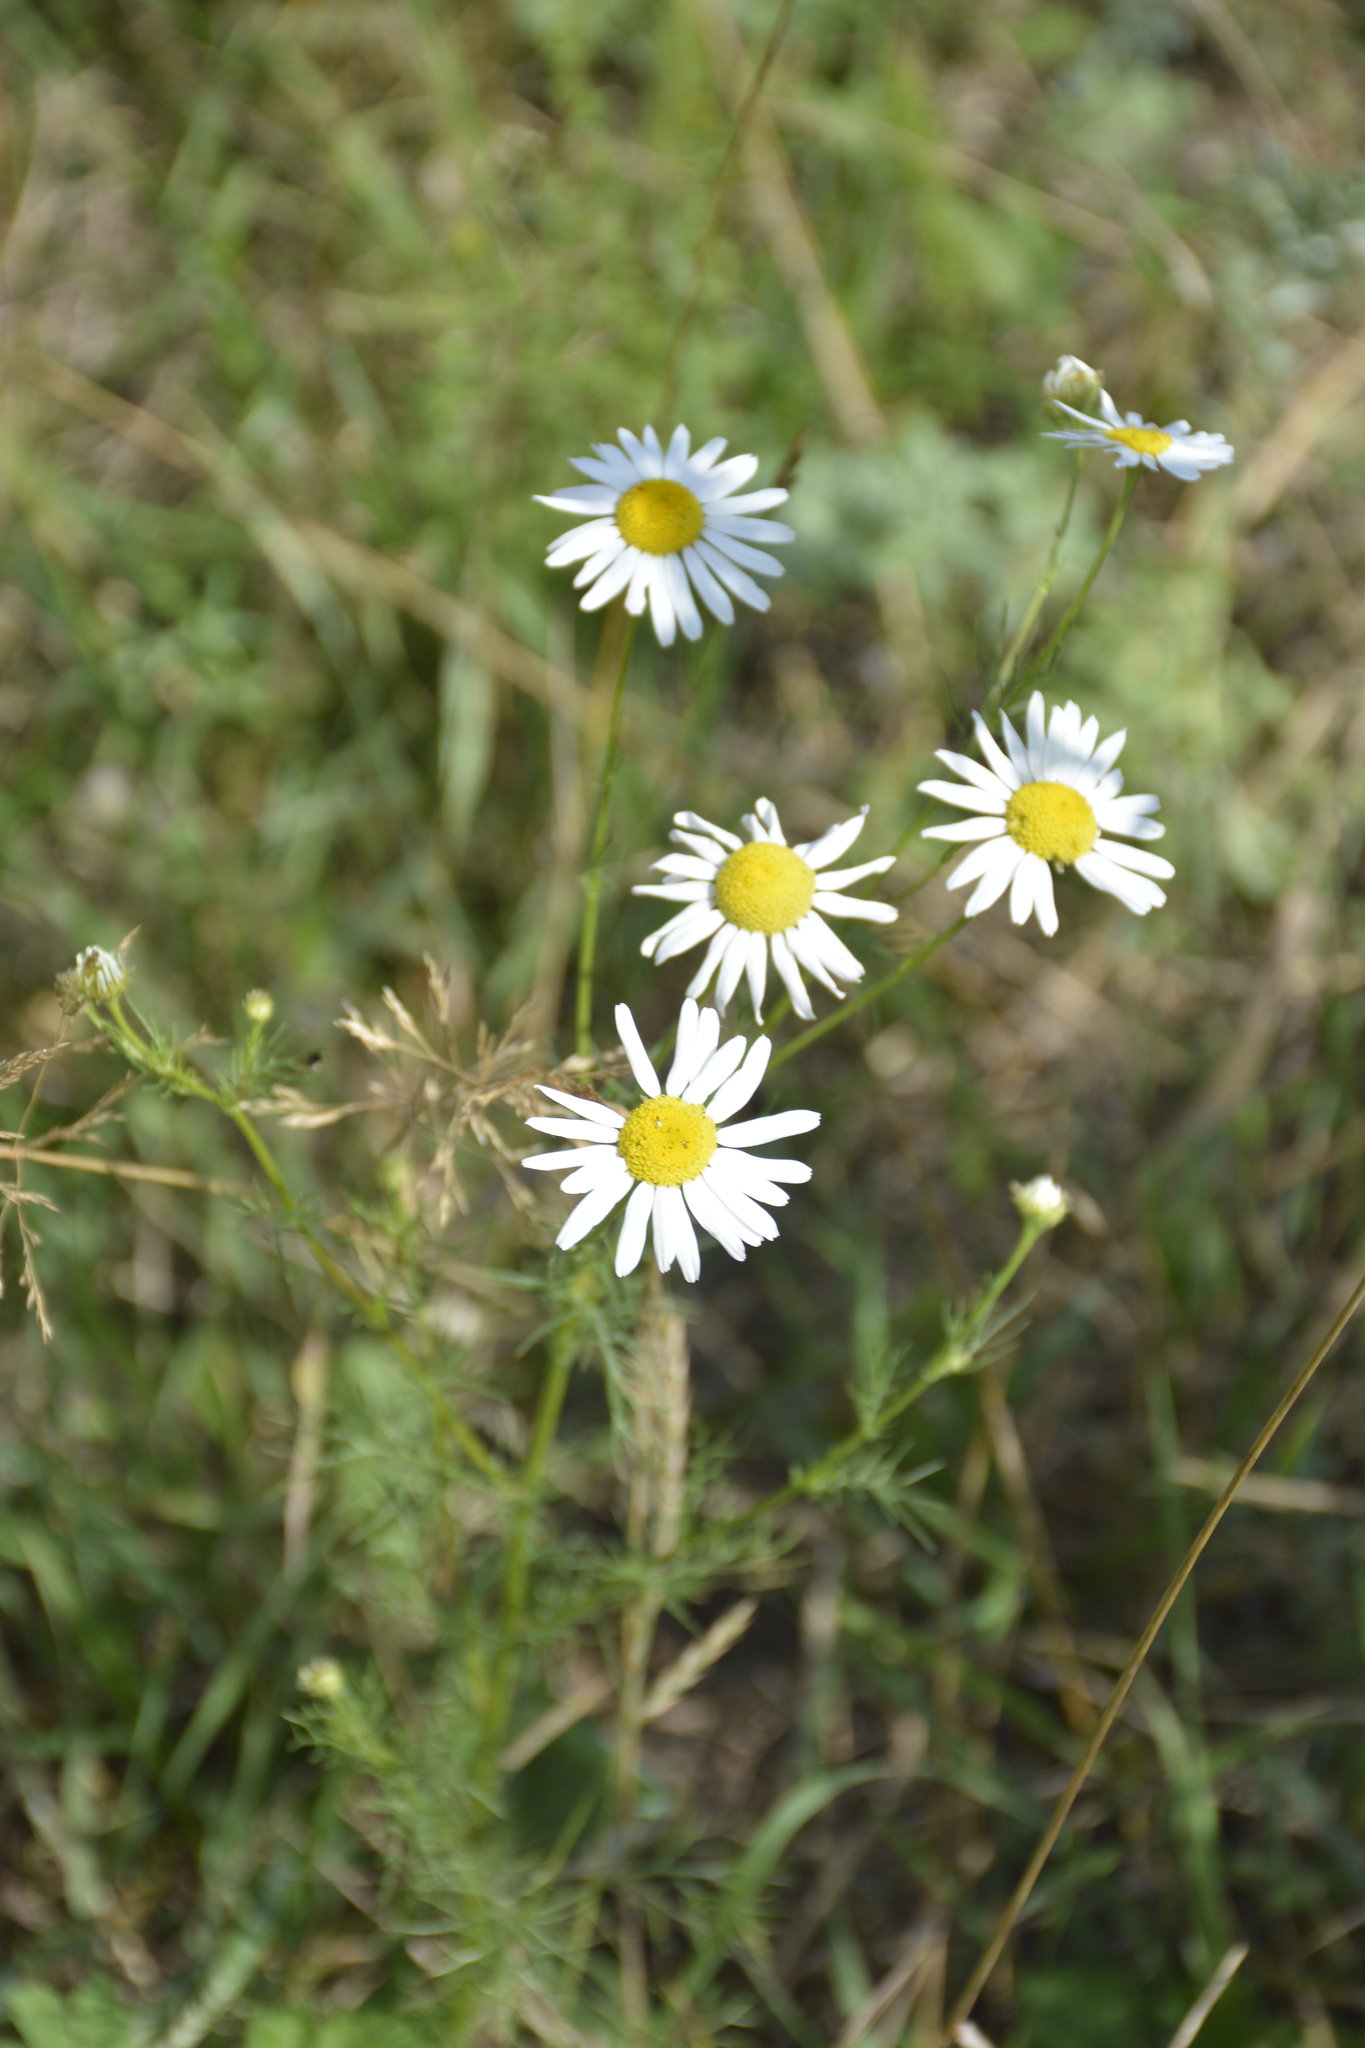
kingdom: Plantae
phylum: Tracheophyta
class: Magnoliopsida
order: Asterales
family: Asteraceae
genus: Tripleurospermum
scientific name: Tripleurospermum inodorum
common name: Scentless mayweed
